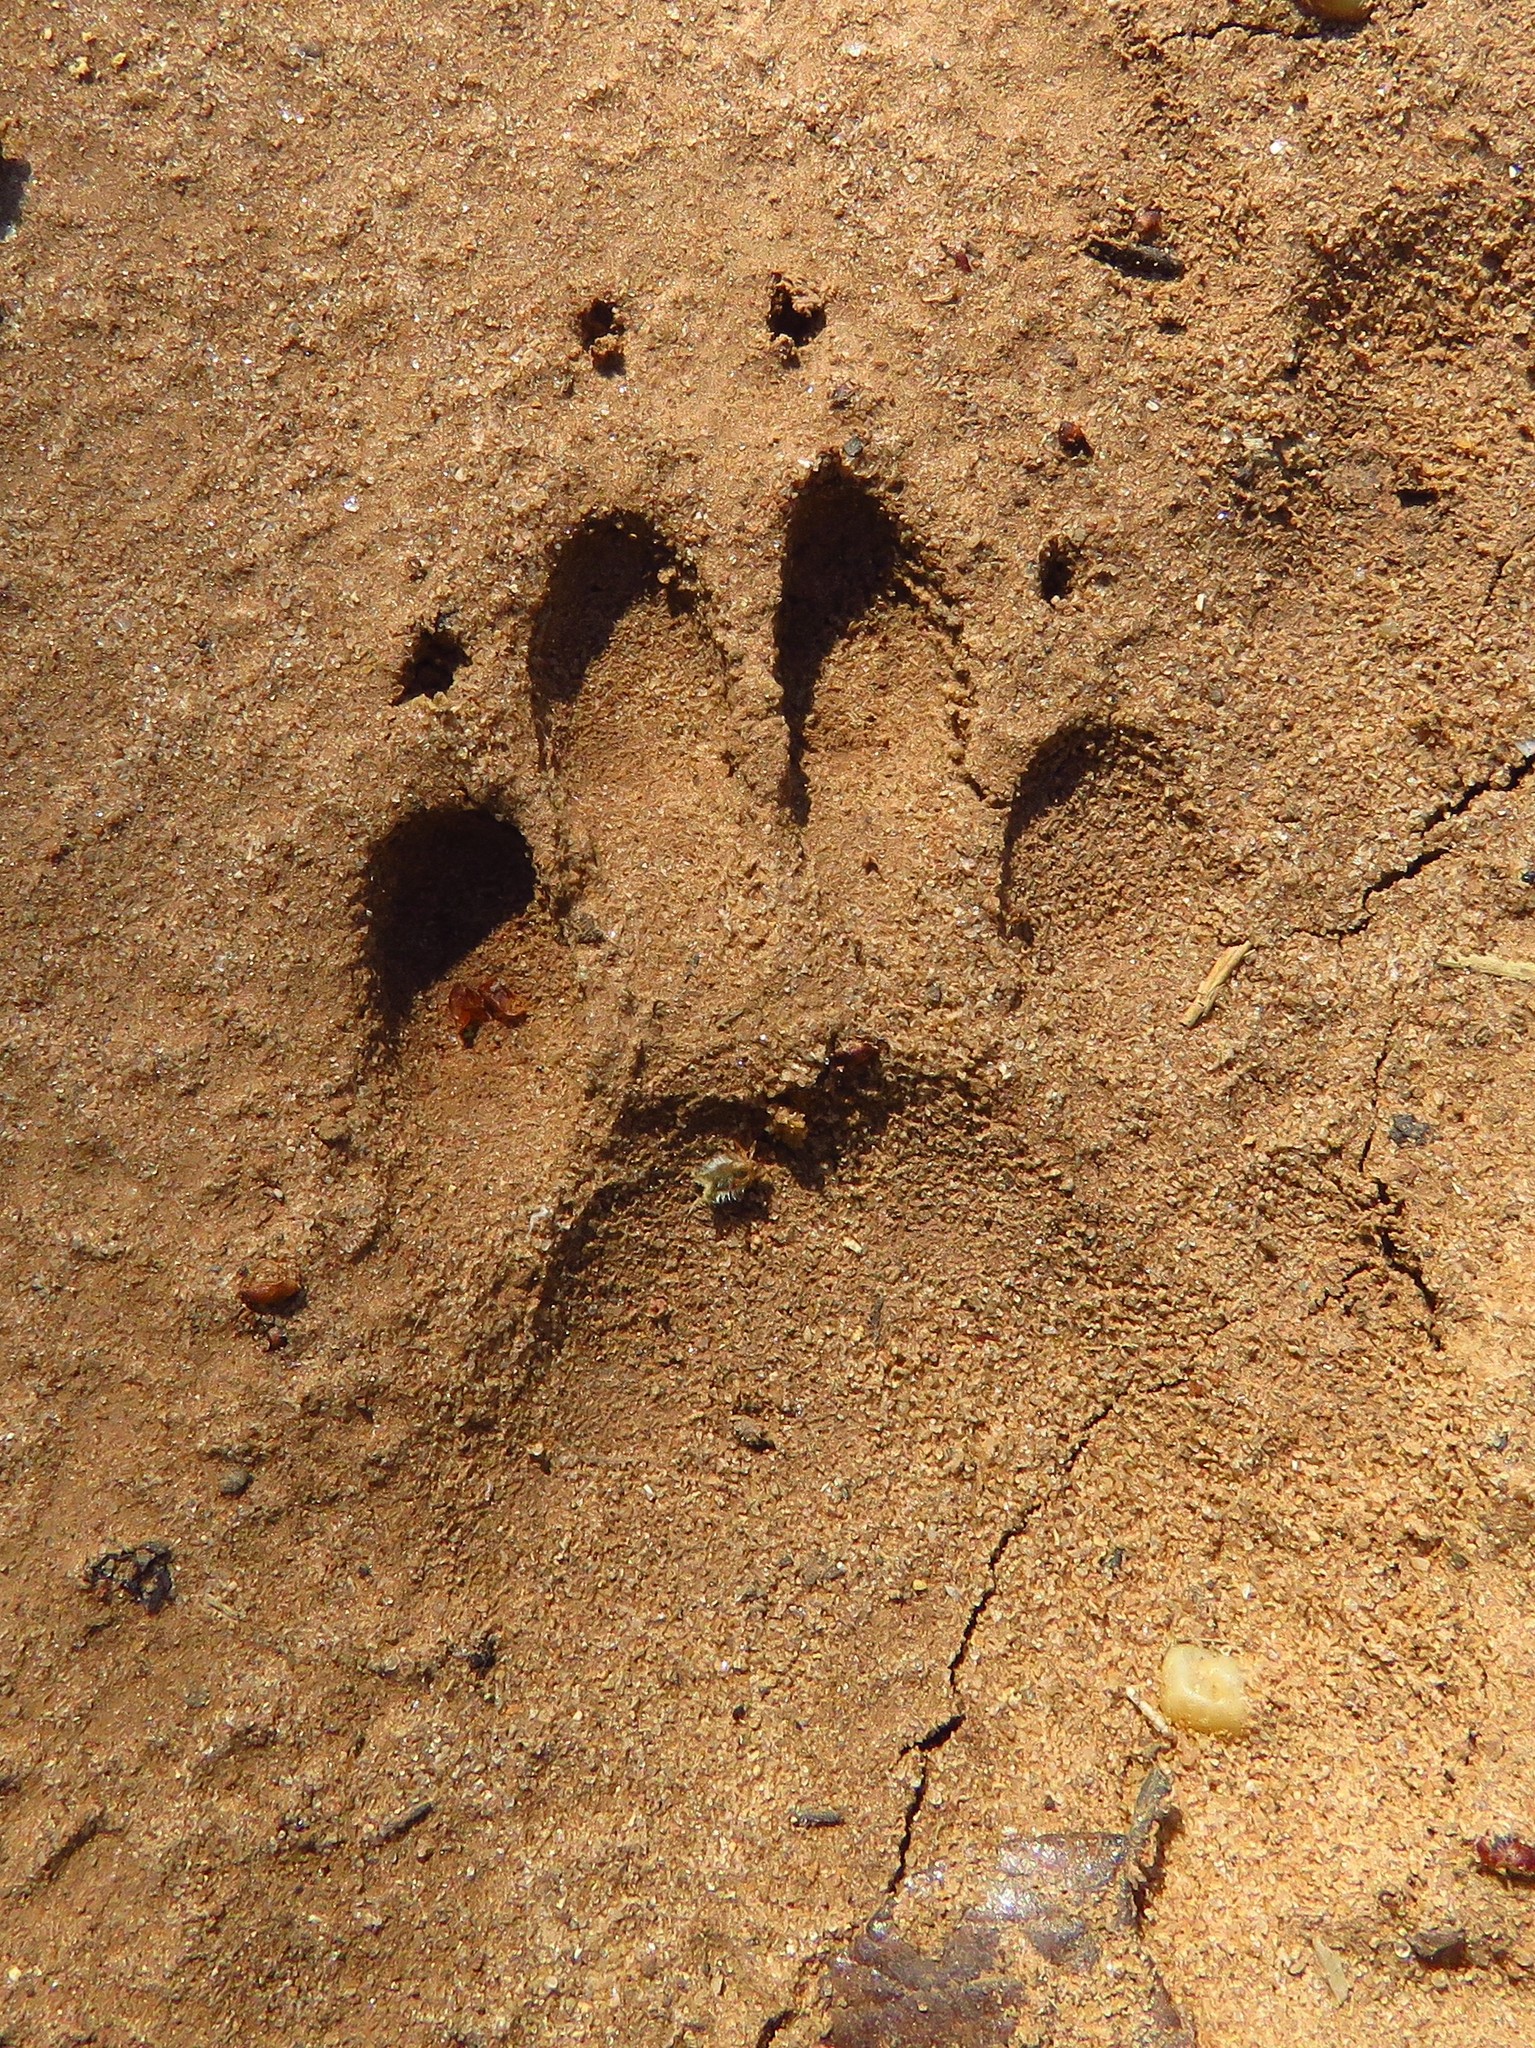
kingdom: Animalia
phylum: Chordata
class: Mammalia
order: Carnivora
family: Procyonidae
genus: Procyon
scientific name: Procyon lotor
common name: Raccoon
